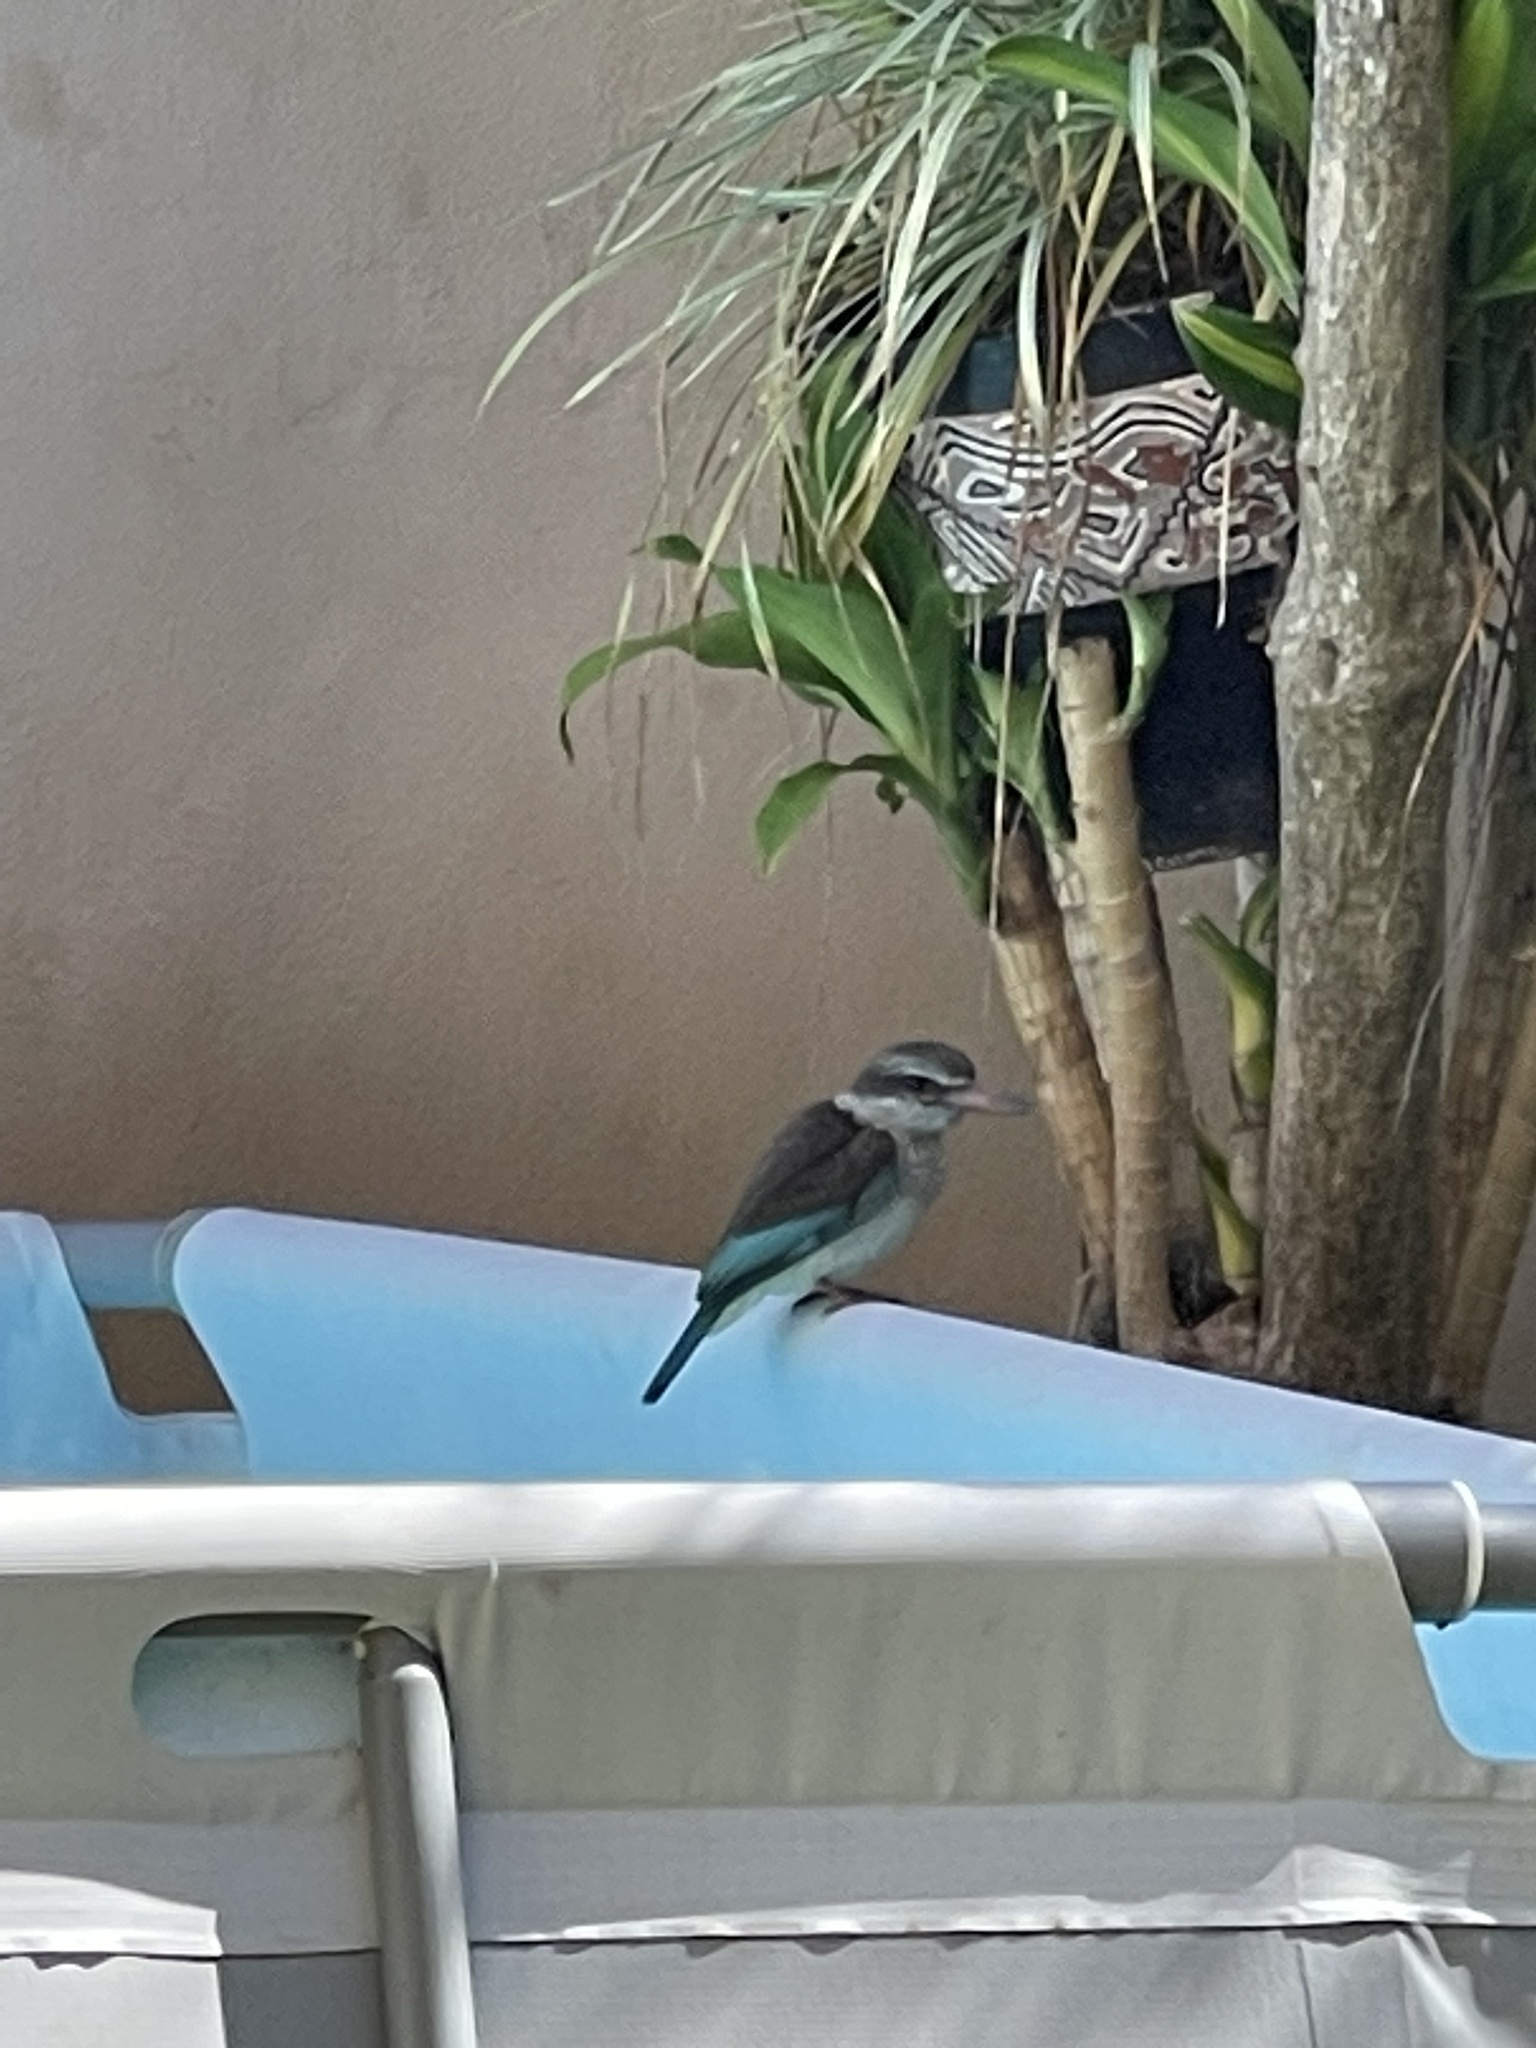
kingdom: Animalia
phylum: Chordata
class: Aves
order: Coraciiformes
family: Alcedinidae
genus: Halcyon
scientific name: Halcyon albiventris
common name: Brown-hooded kingfisher
